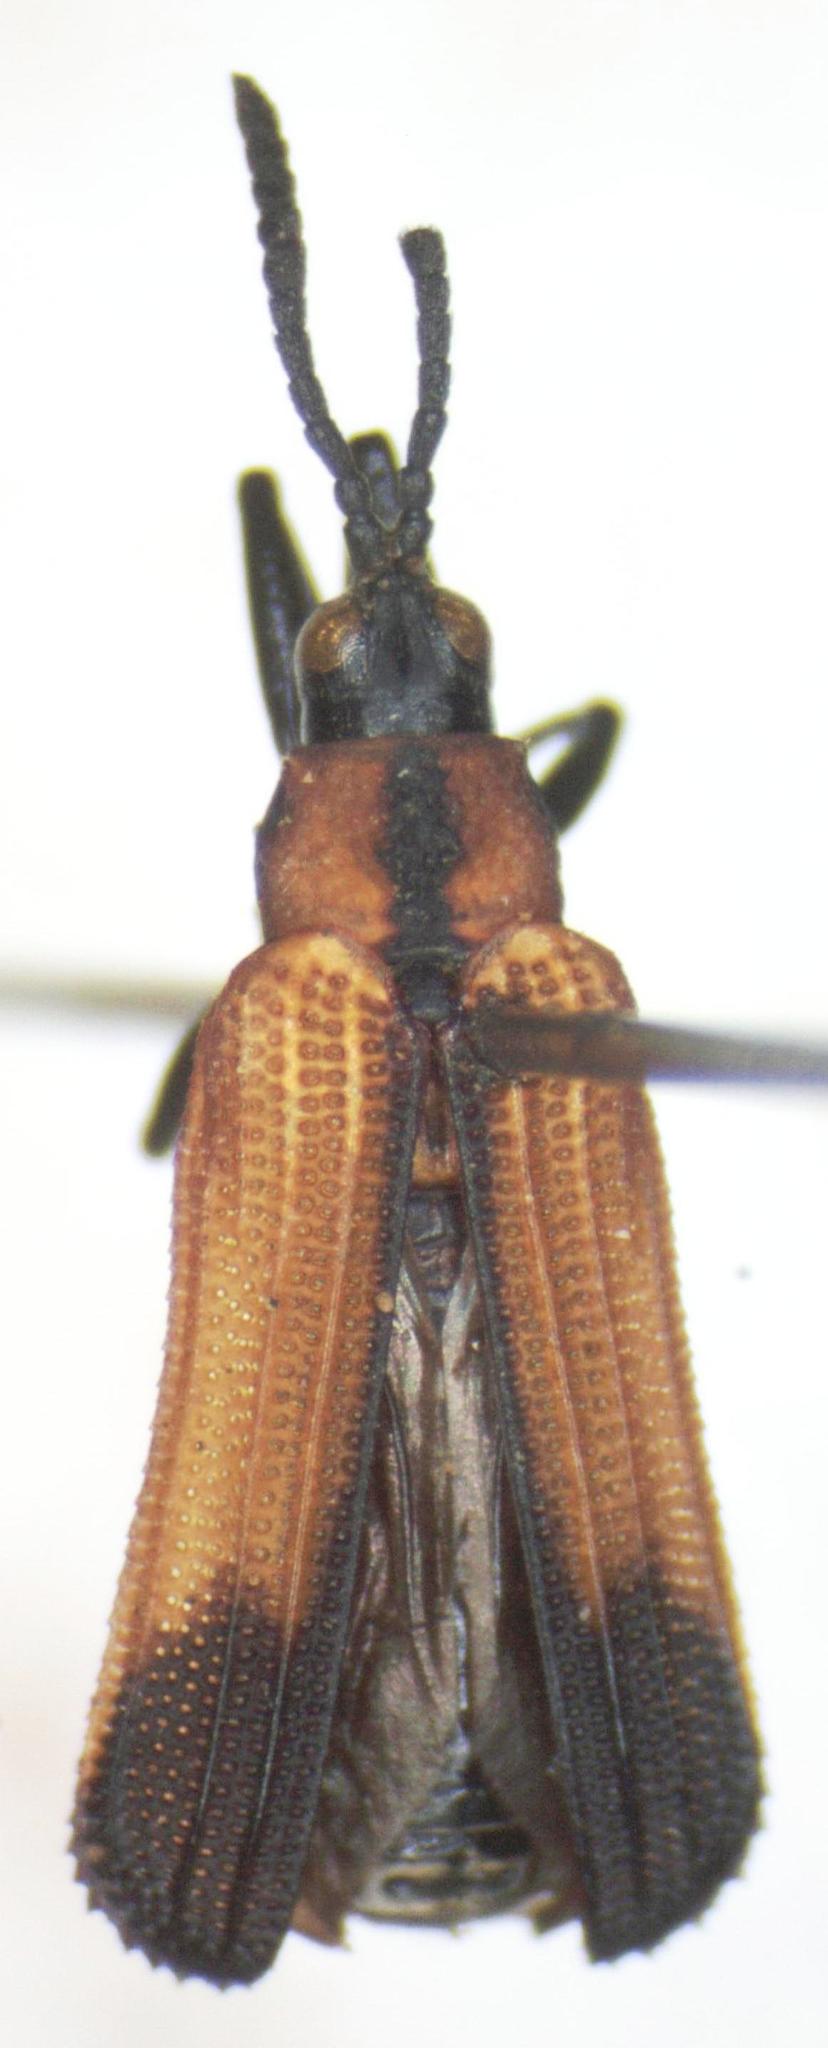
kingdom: Animalia
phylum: Arthropoda
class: Insecta
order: Coleoptera
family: Chrysomelidae
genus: Chalepus
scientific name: Chalepus assmanni
